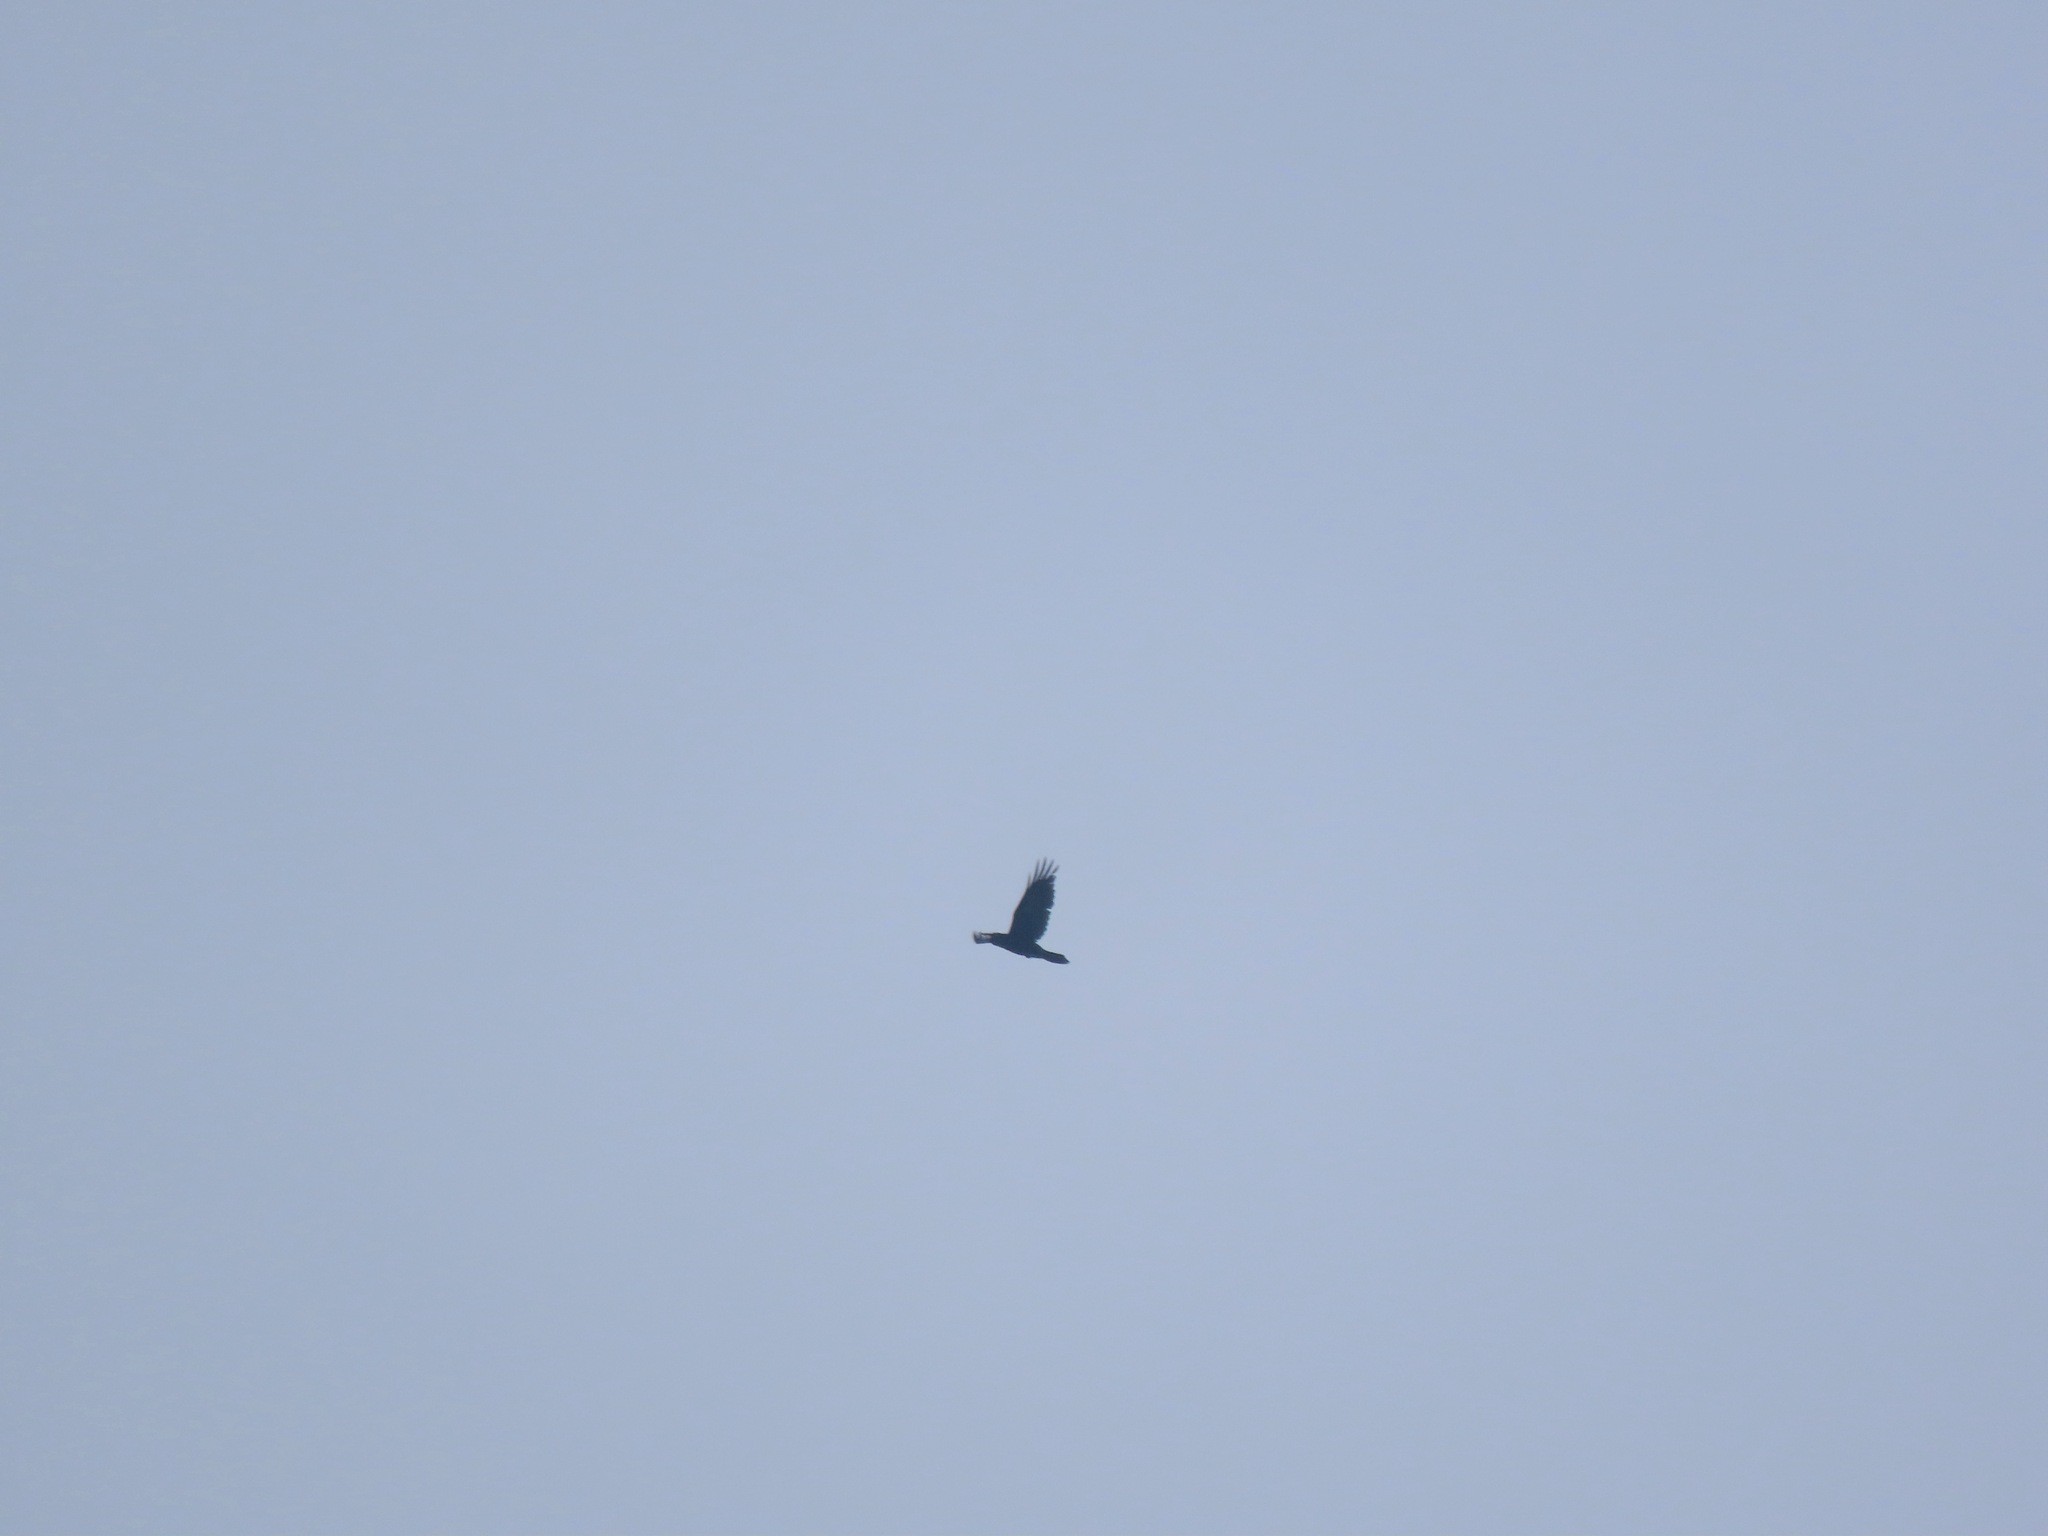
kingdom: Animalia
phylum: Chordata
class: Aves
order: Passeriformes
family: Corvidae
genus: Corvus
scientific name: Corvus corax
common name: Common raven
